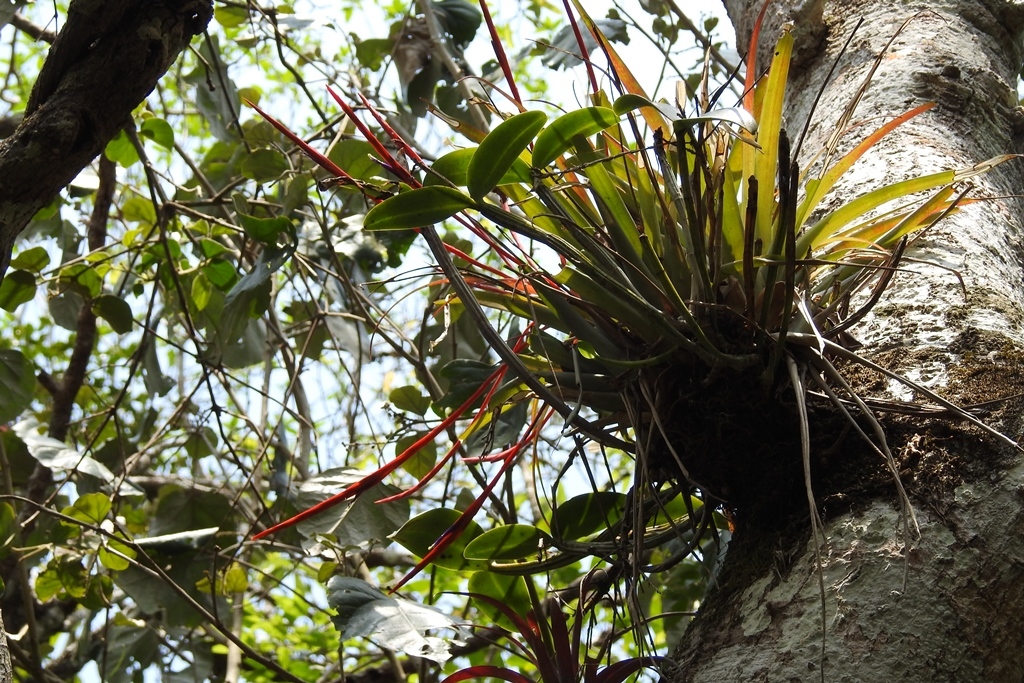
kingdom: Plantae
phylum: Tracheophyta
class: Liliopsida
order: Poales
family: Bromeliaceae
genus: Tillandsia
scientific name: Tillandsia flabellata
